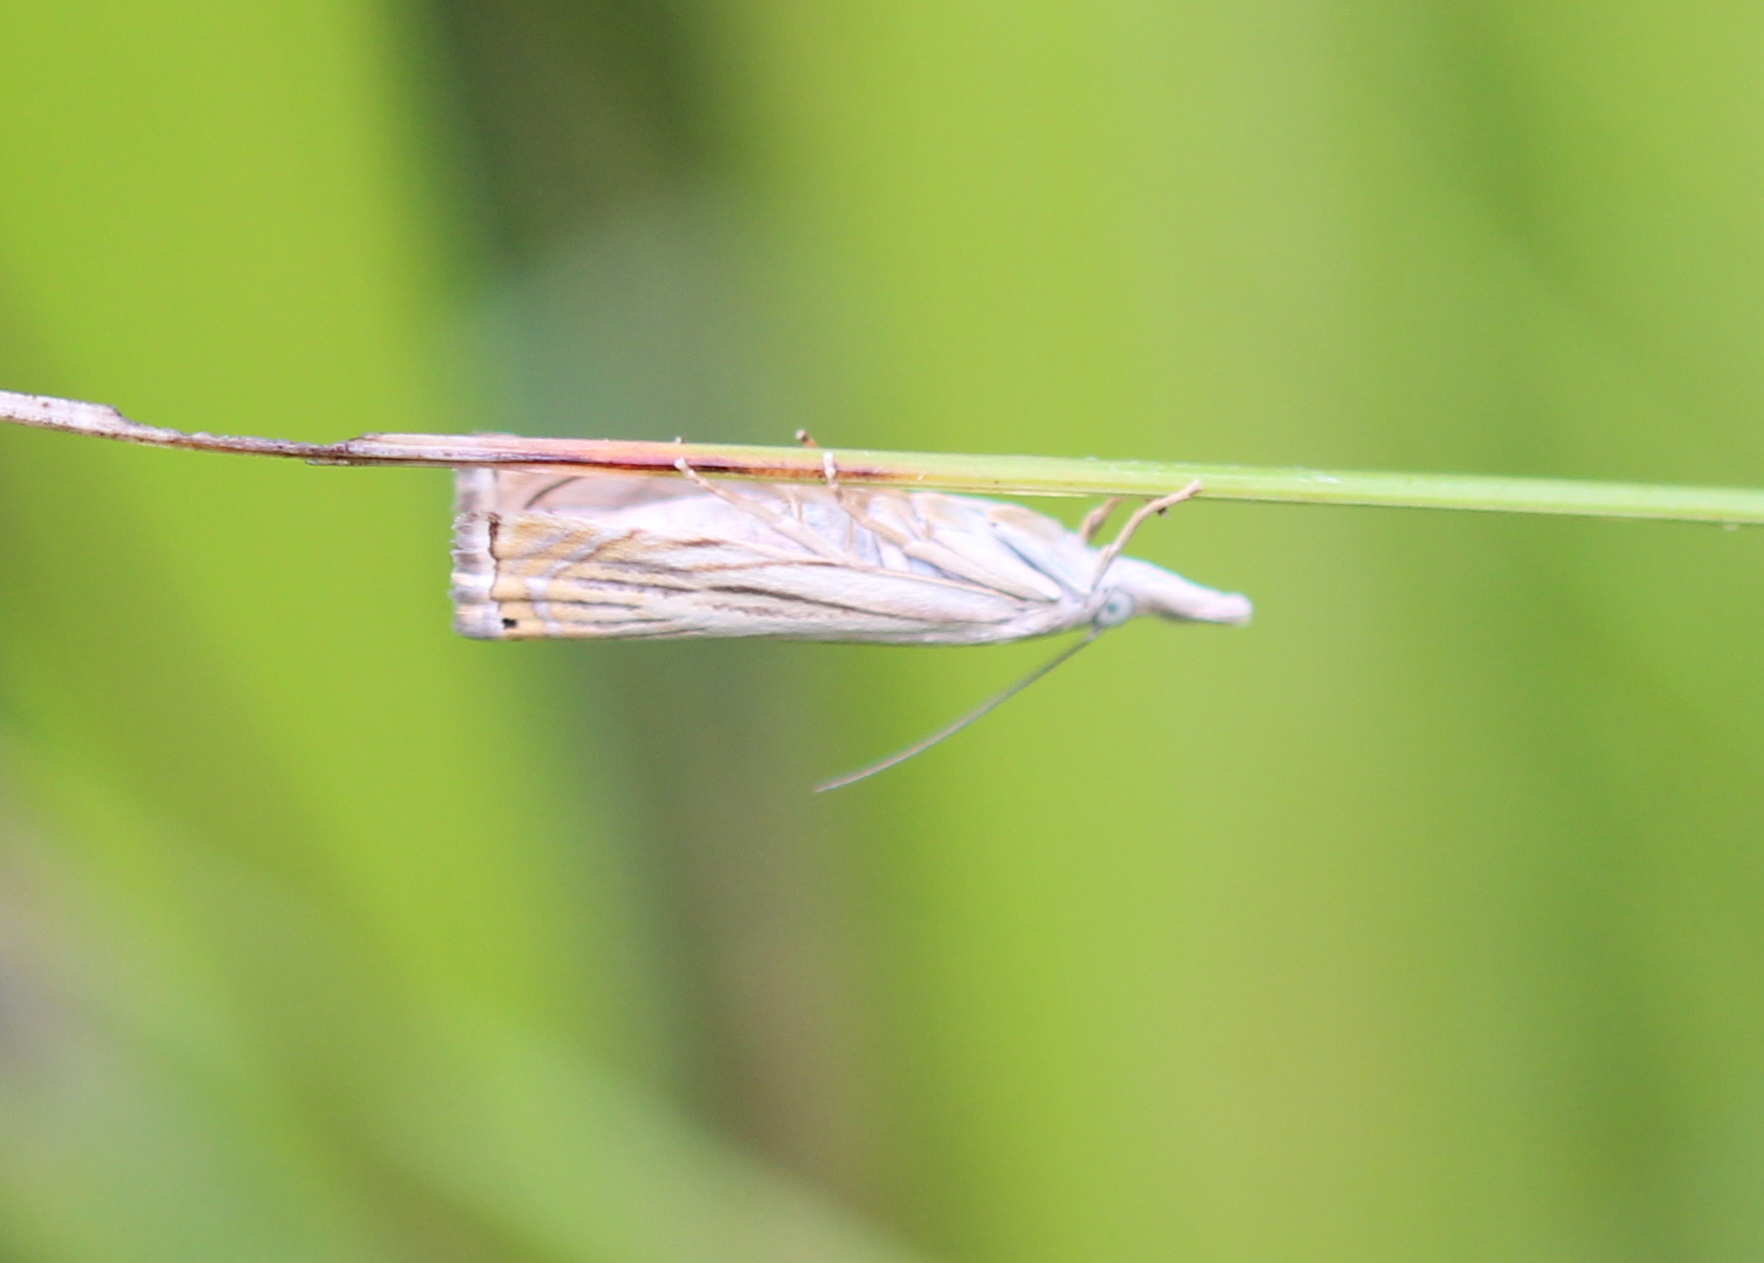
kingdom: Animalia
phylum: Arthropoda
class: Insecta
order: Lepidoptera
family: Crambidae
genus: Chrysoteuchia
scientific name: Chrysoteuchia topiarius
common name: Topiary grass-veneer
